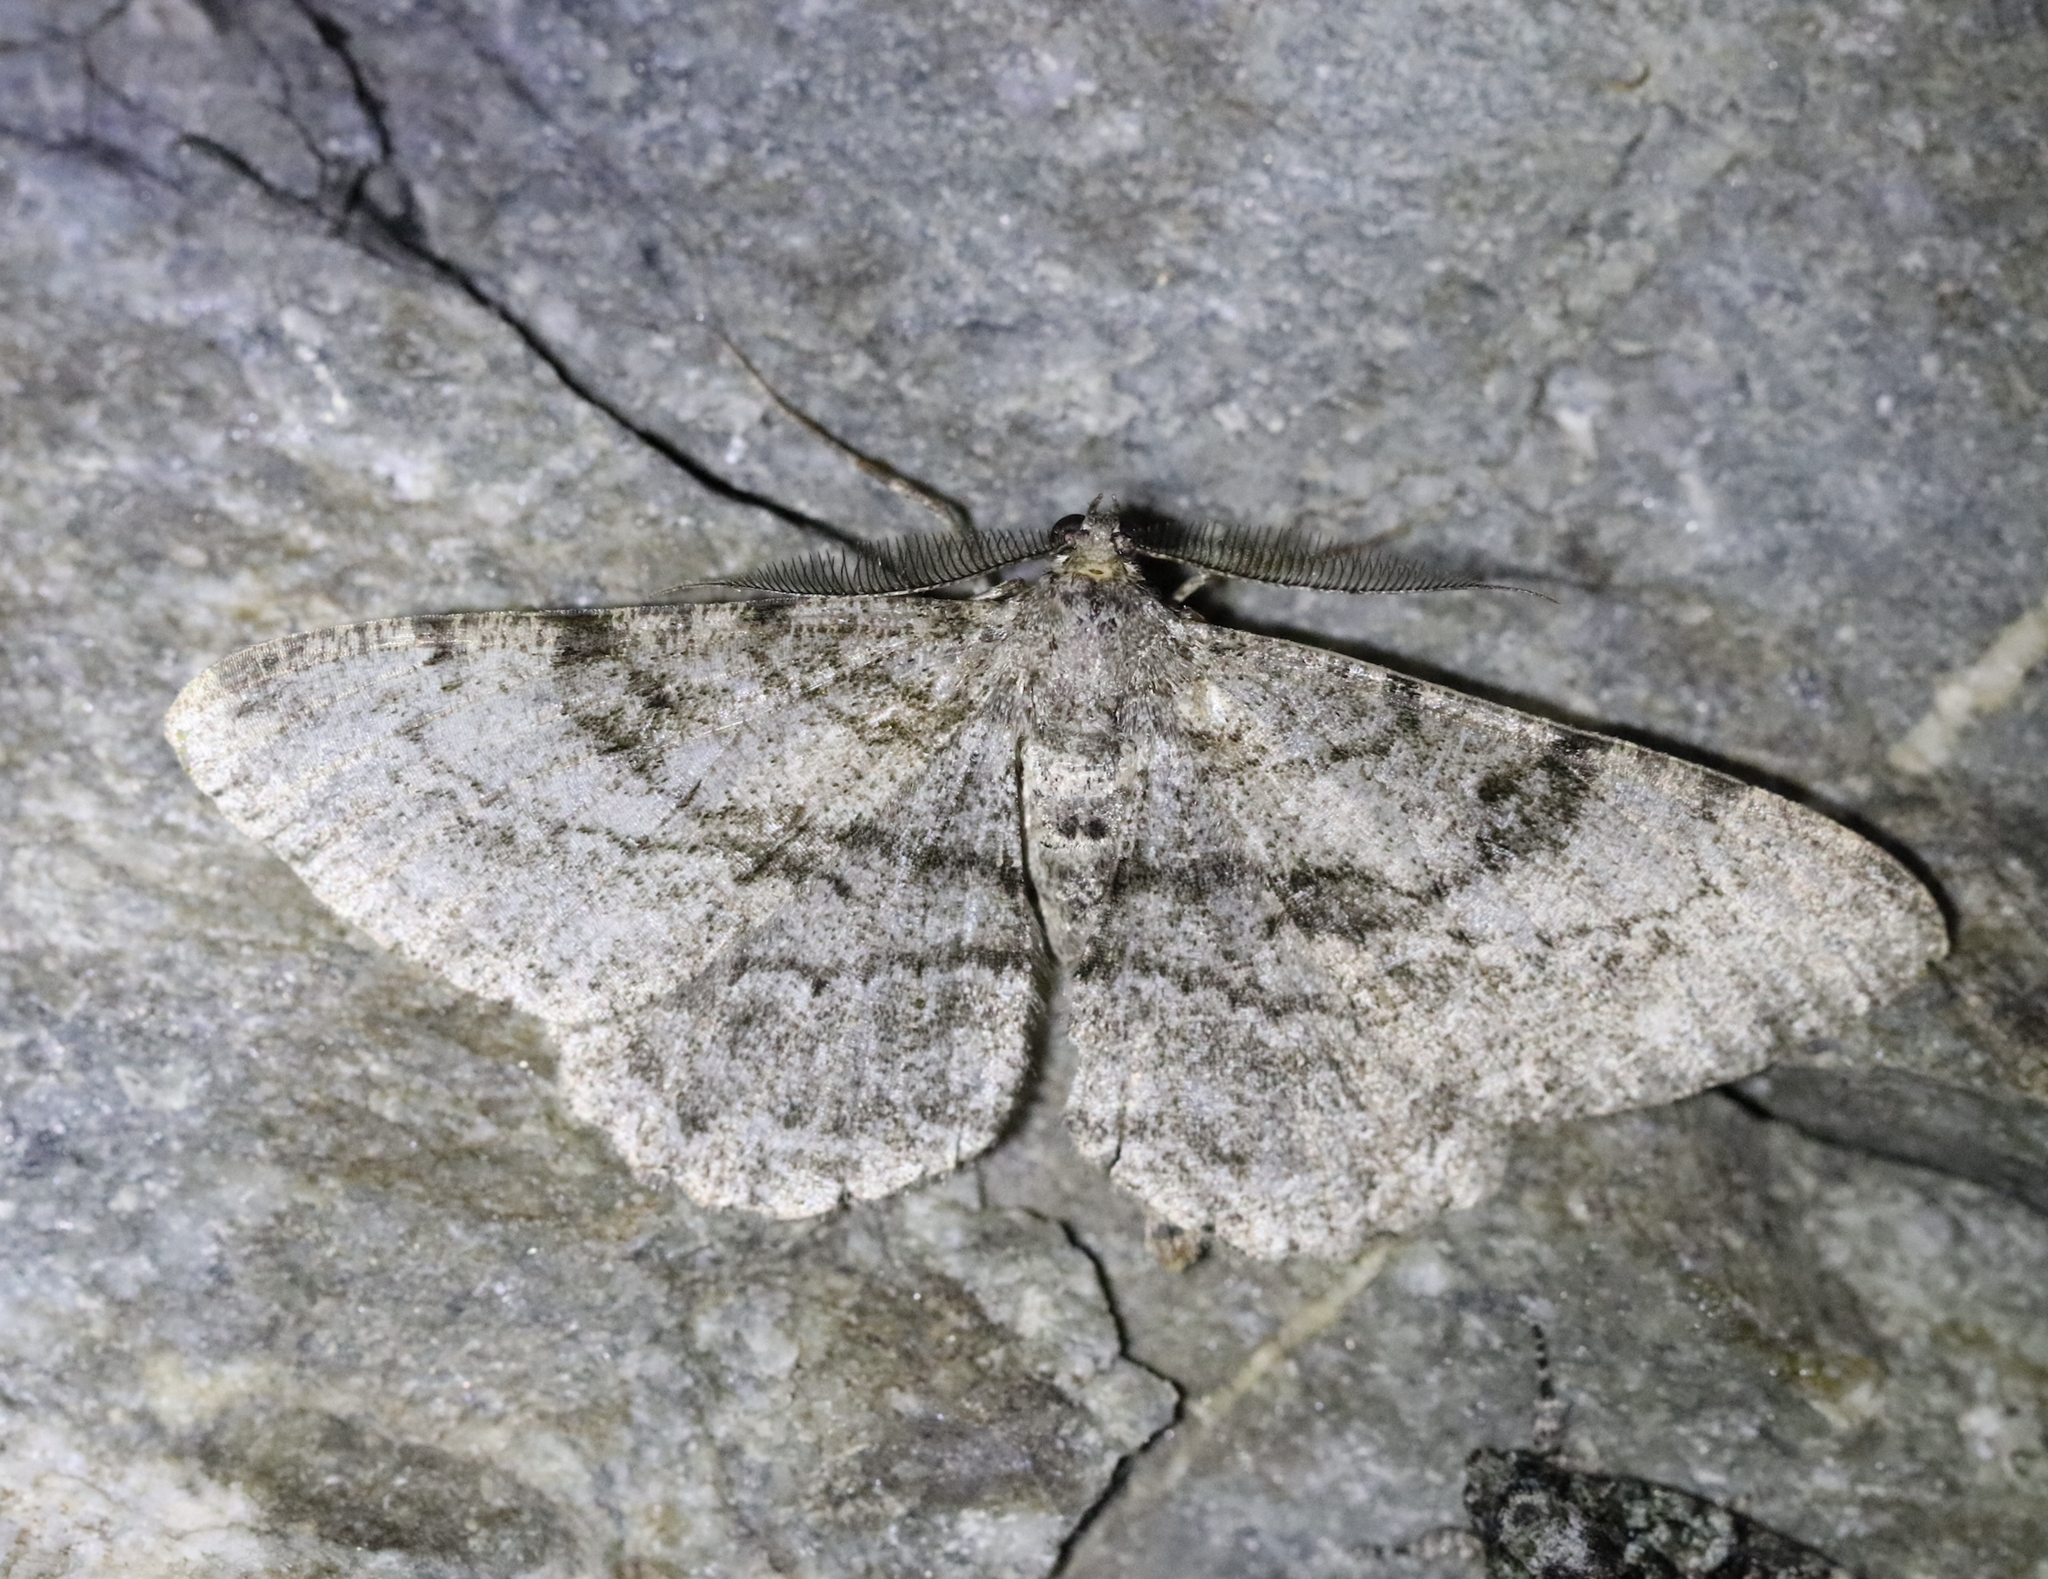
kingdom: Animalia
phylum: Arthropoda
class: Insecta
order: Lepidoptera
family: Geometridae
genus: Peribatodes
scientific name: Peribatodes rhomboidaria
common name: Willow beauty
